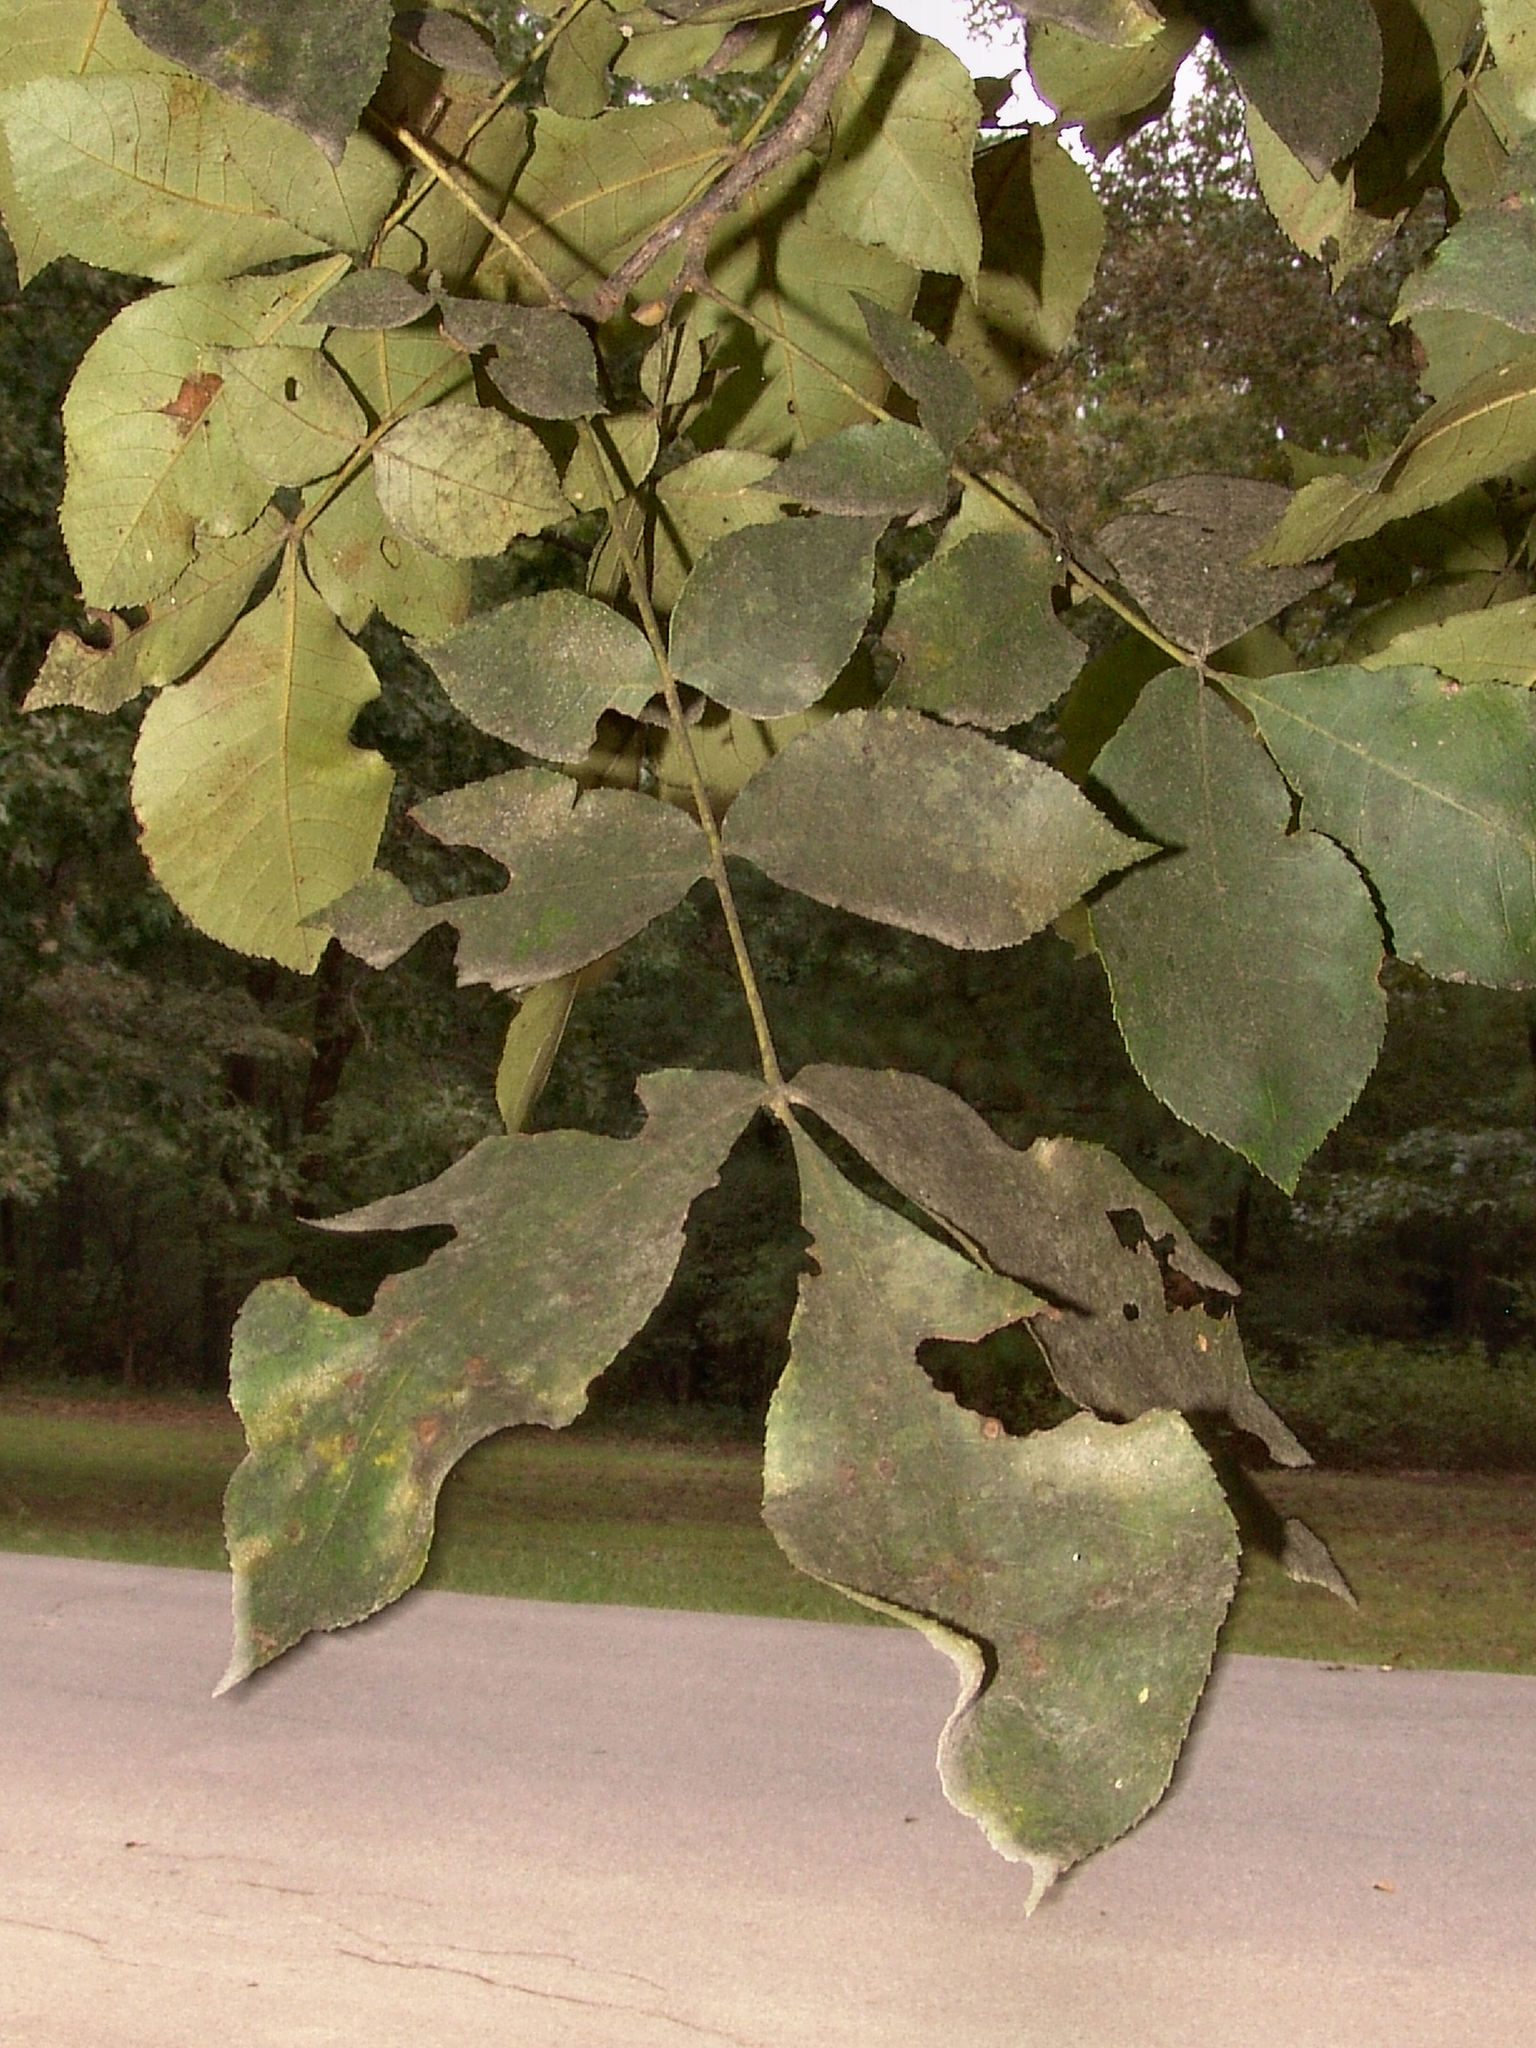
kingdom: Animalia
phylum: Arthropoda
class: Insecta
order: Diptera
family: Cecidomyiidae
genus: Caryomyia
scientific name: Caryomyia tubicola
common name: Hickory bullet gall midge
